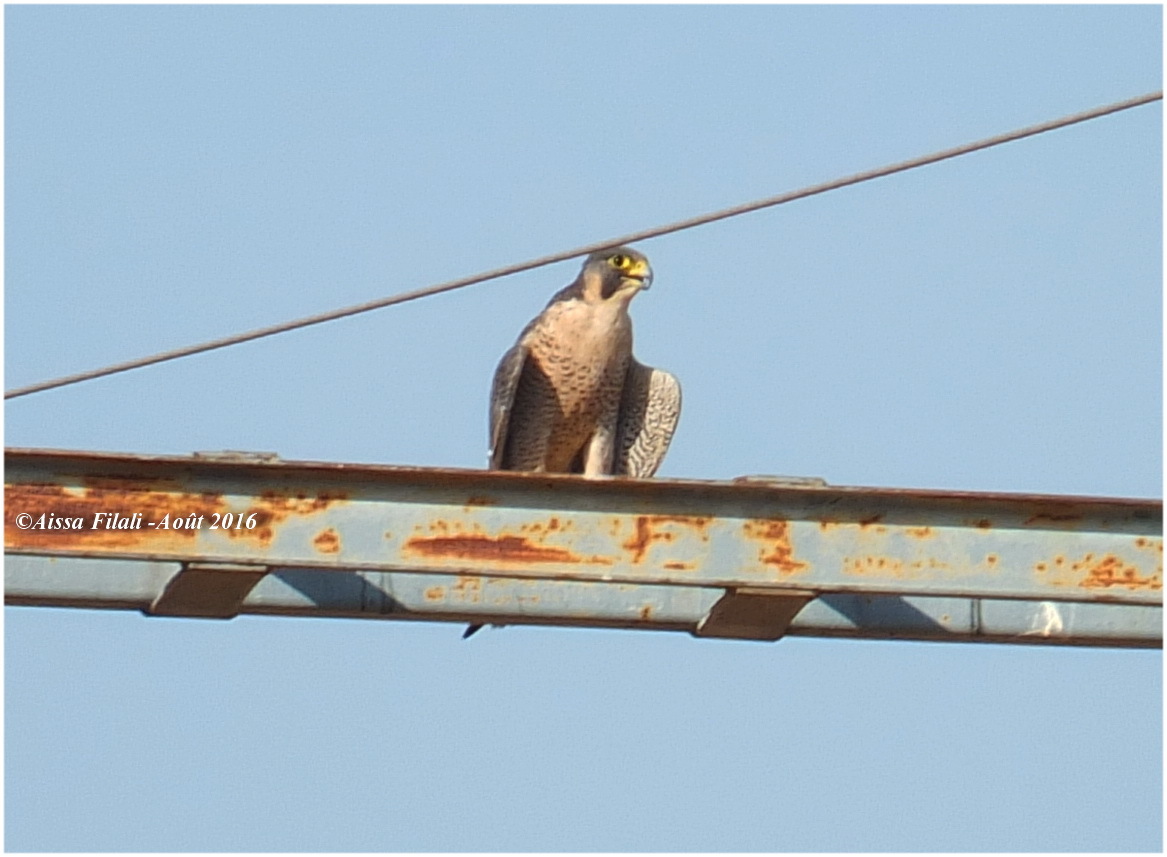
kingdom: Animalia
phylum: Chordata
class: Aves
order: Falconiformes
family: Falconidae
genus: Falco
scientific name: Falco peregrinus
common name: Peregrine falcon
